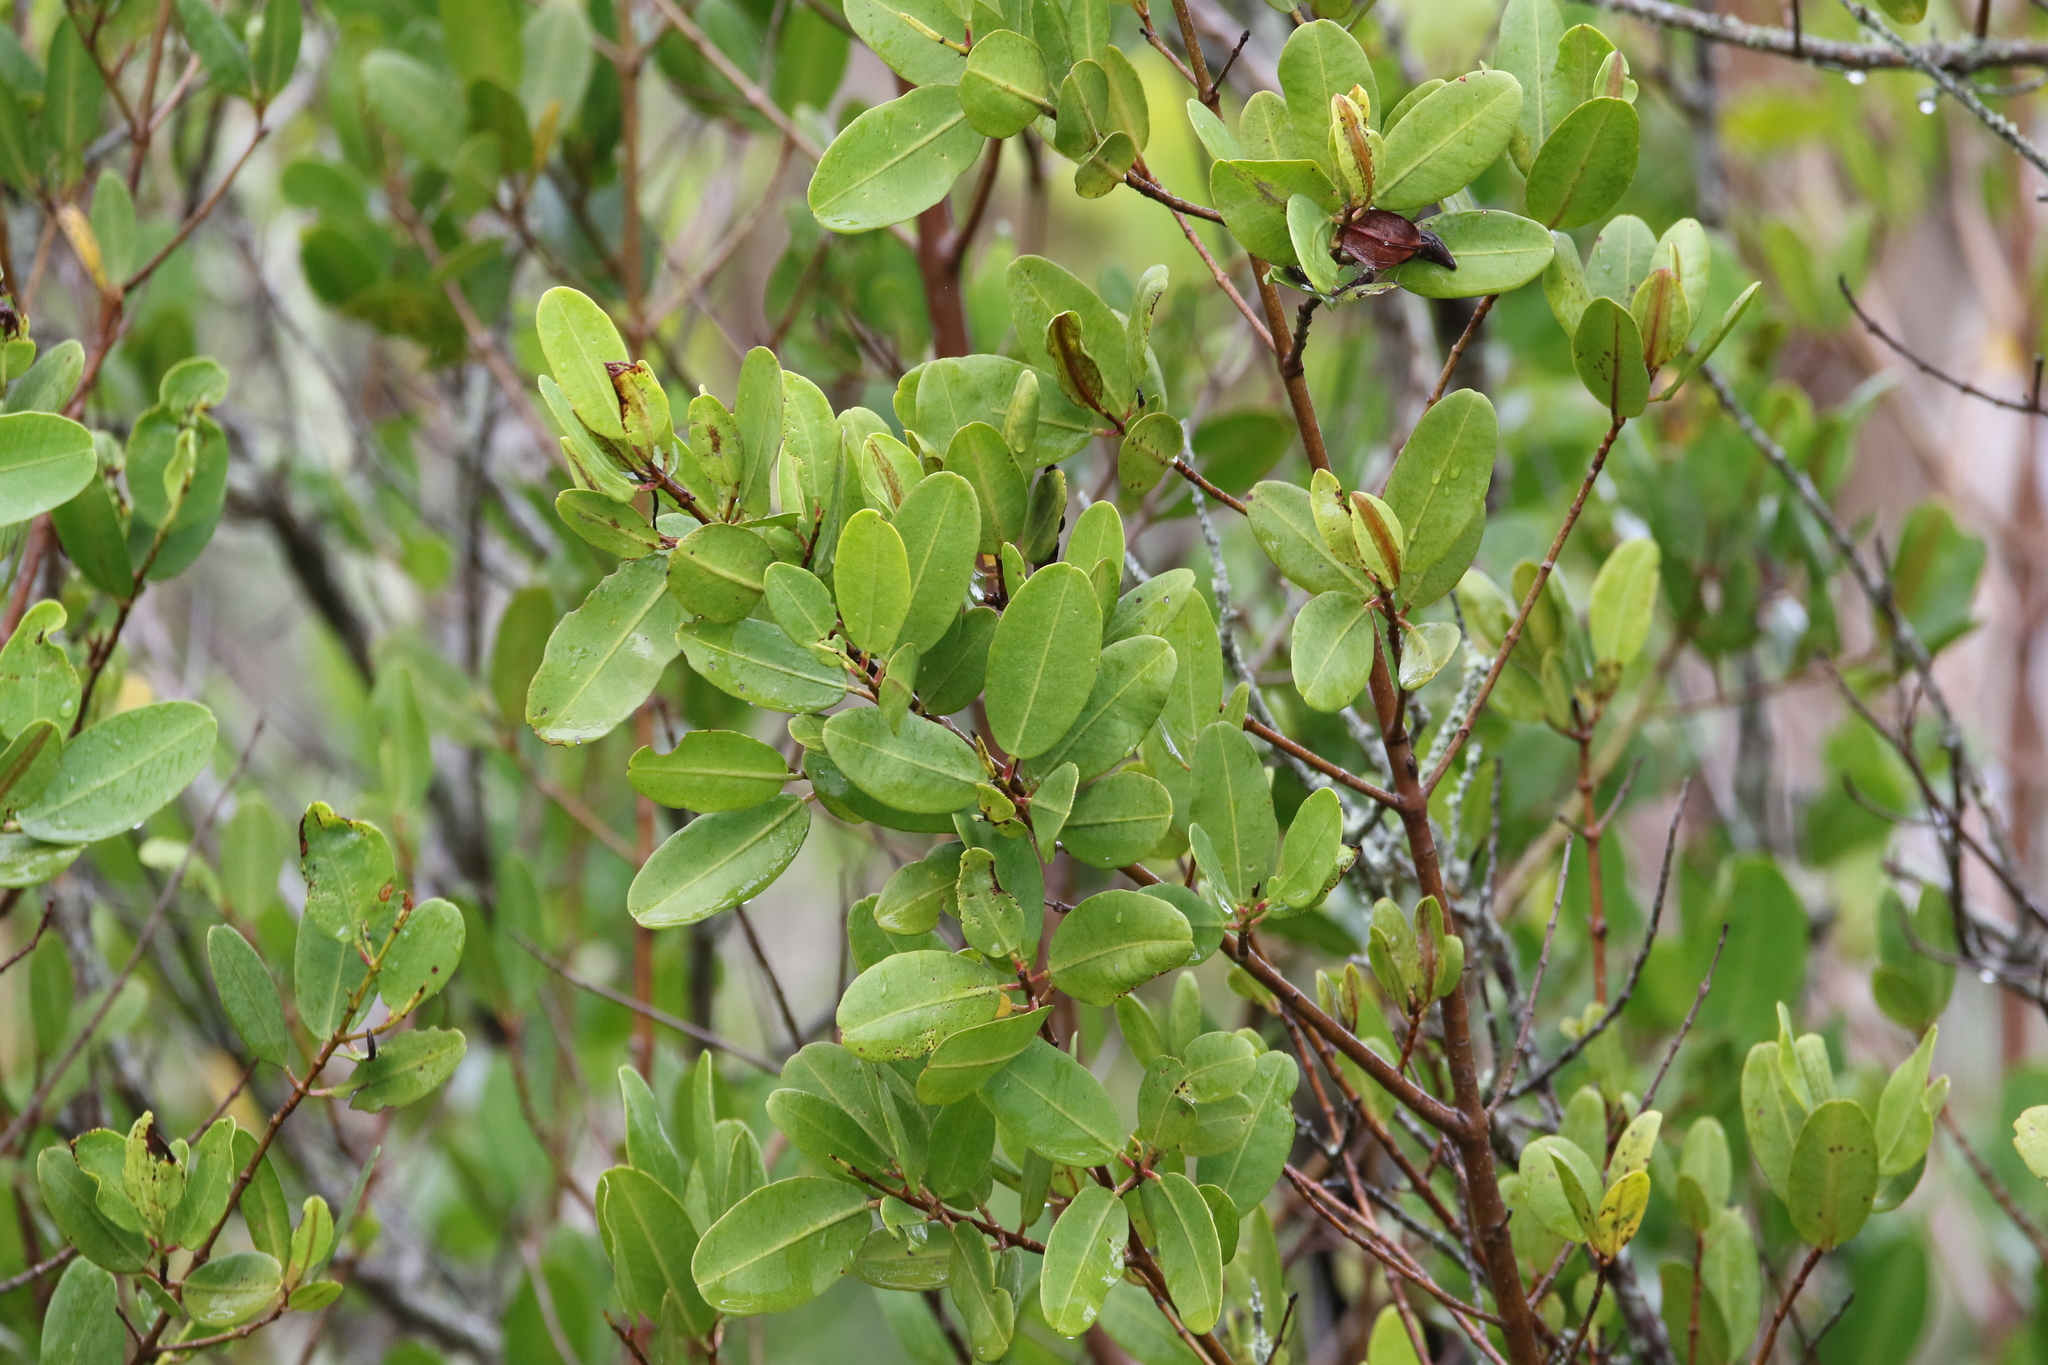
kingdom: Plantae
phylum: Tracheophyta
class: Magnoliopsida
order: Myrtales
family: Combretaceae
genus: Laguncularia
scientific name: Laguncularia racemosa
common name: White mangrove
